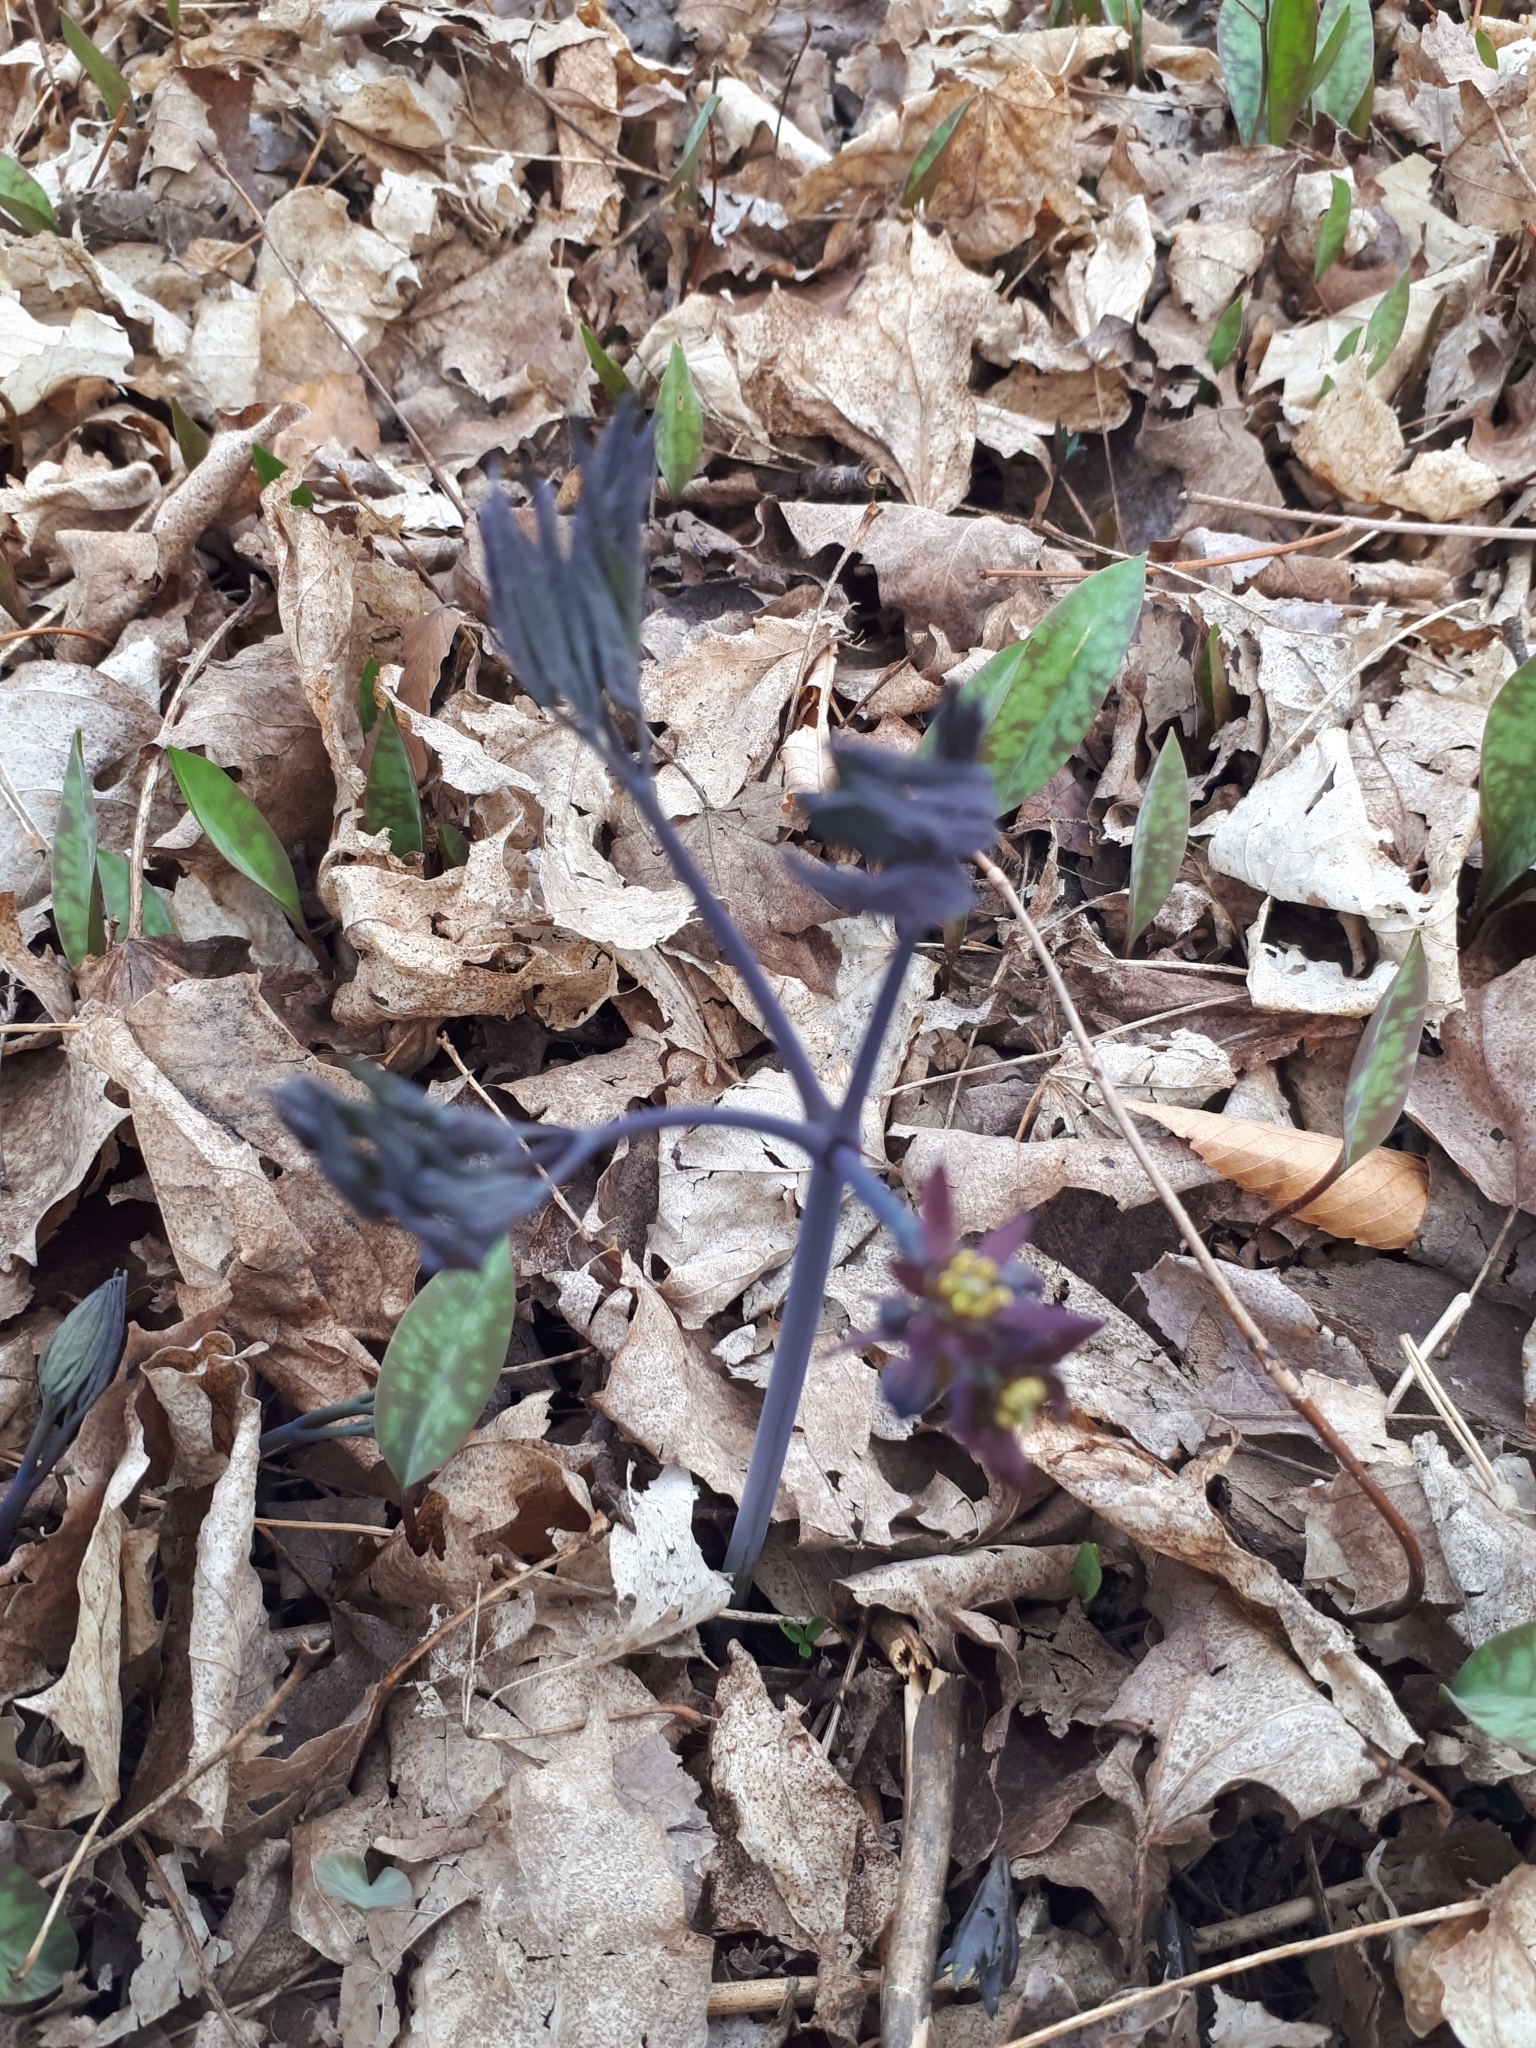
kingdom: Plantae
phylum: Tracheophyta
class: Magnoliopsida
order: Ranunculales
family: Berberidaceae
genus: Caulophyllum
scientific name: Caulophyllum giganteum
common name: Blue cohosh
